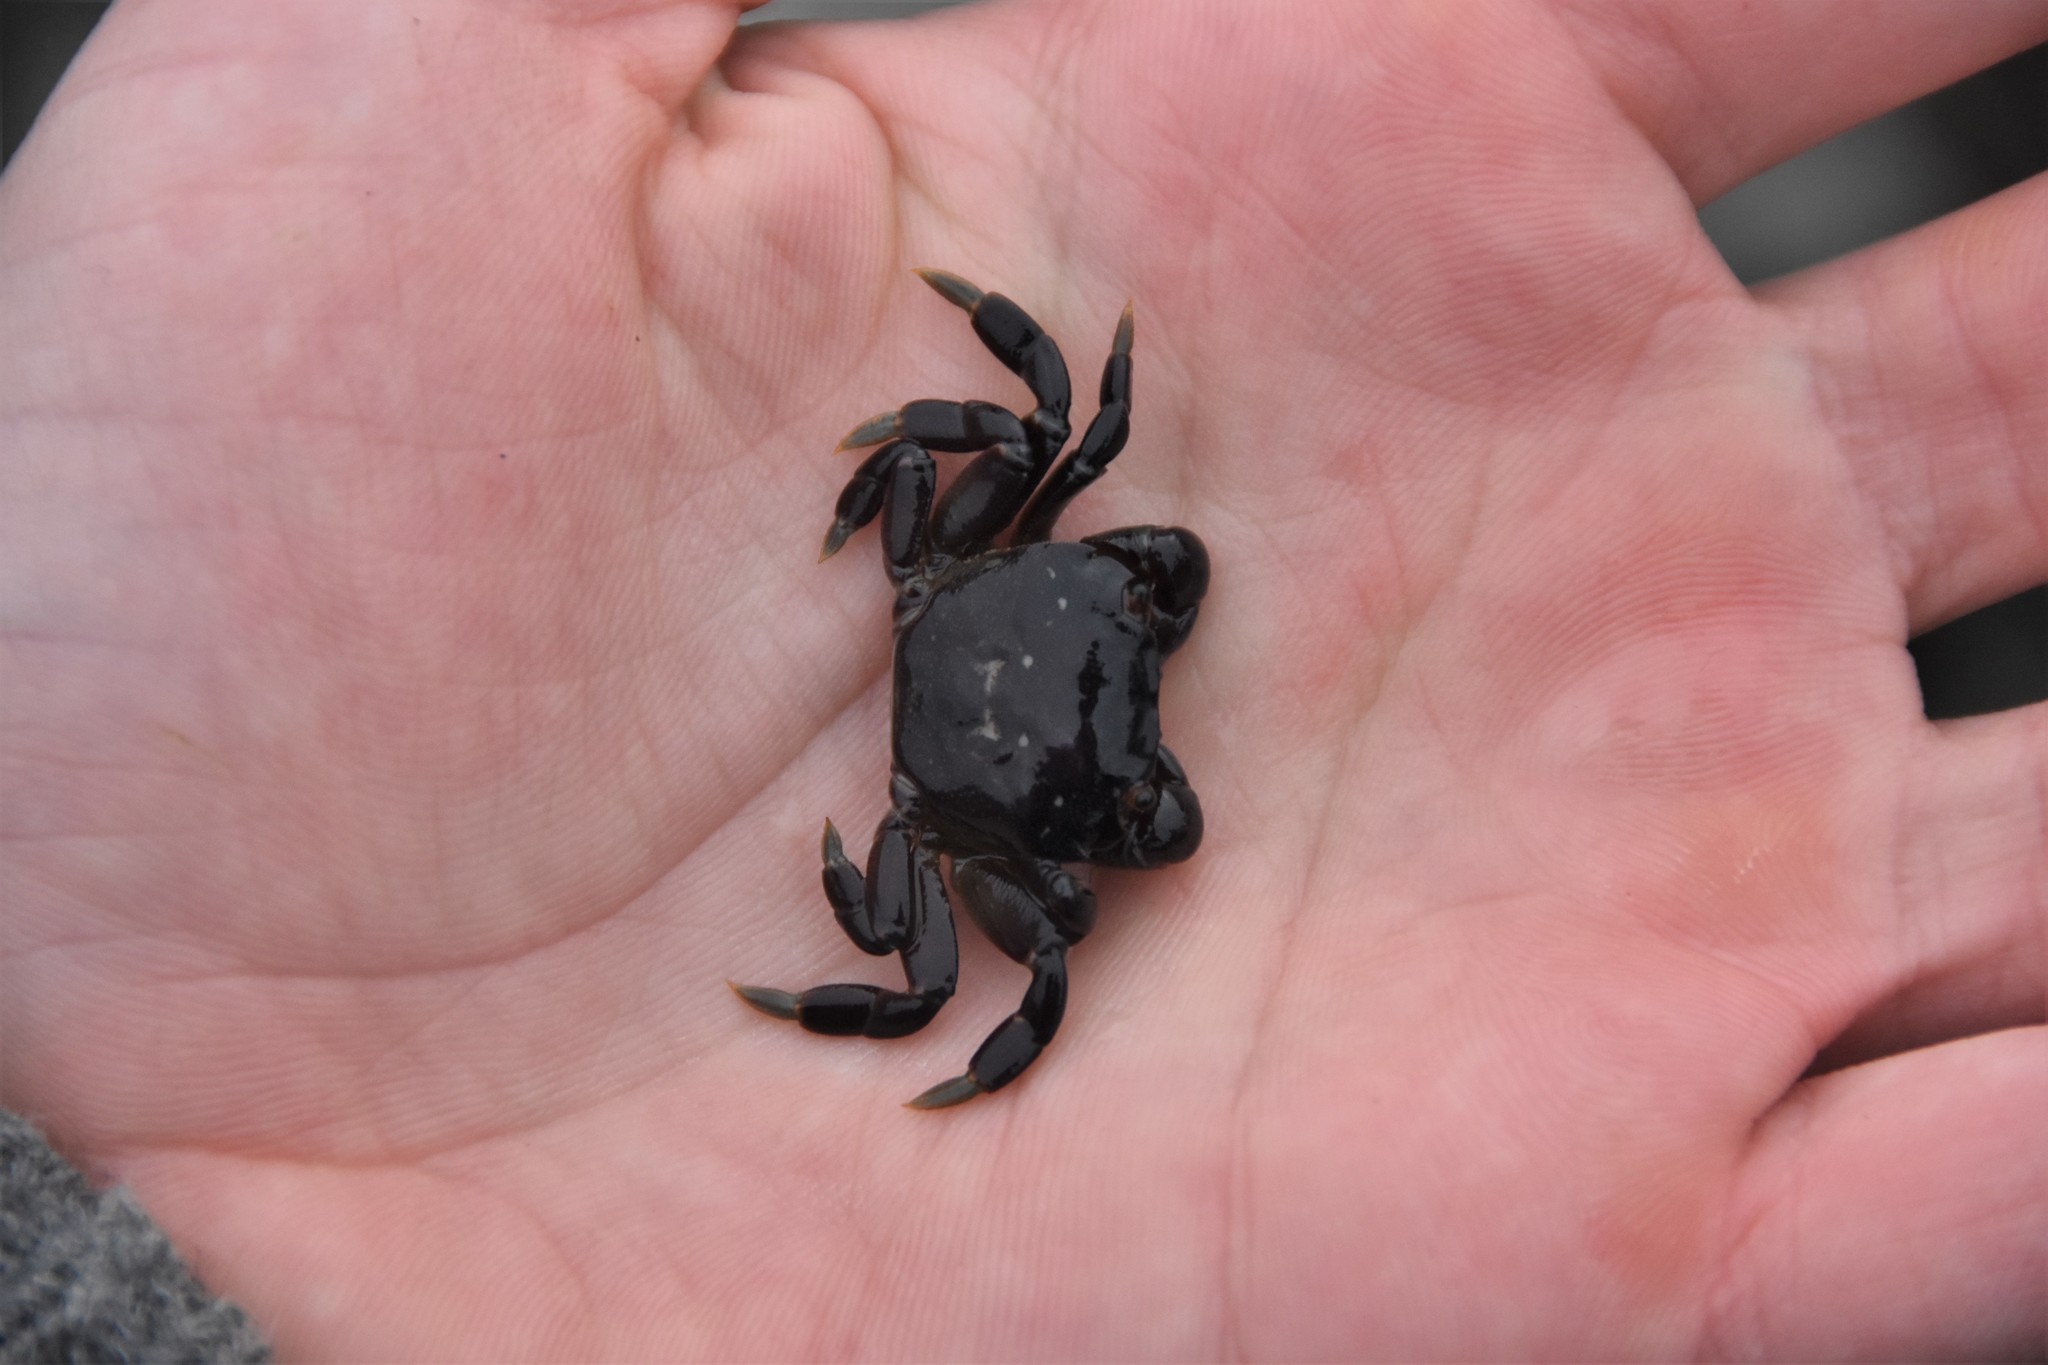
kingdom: Animalia
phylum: Arthropoda
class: Malacostraca
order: Decapoda
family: Varunidae
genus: Hemigrapsus
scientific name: Hemigrapsus nudus
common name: Purple shore crab
